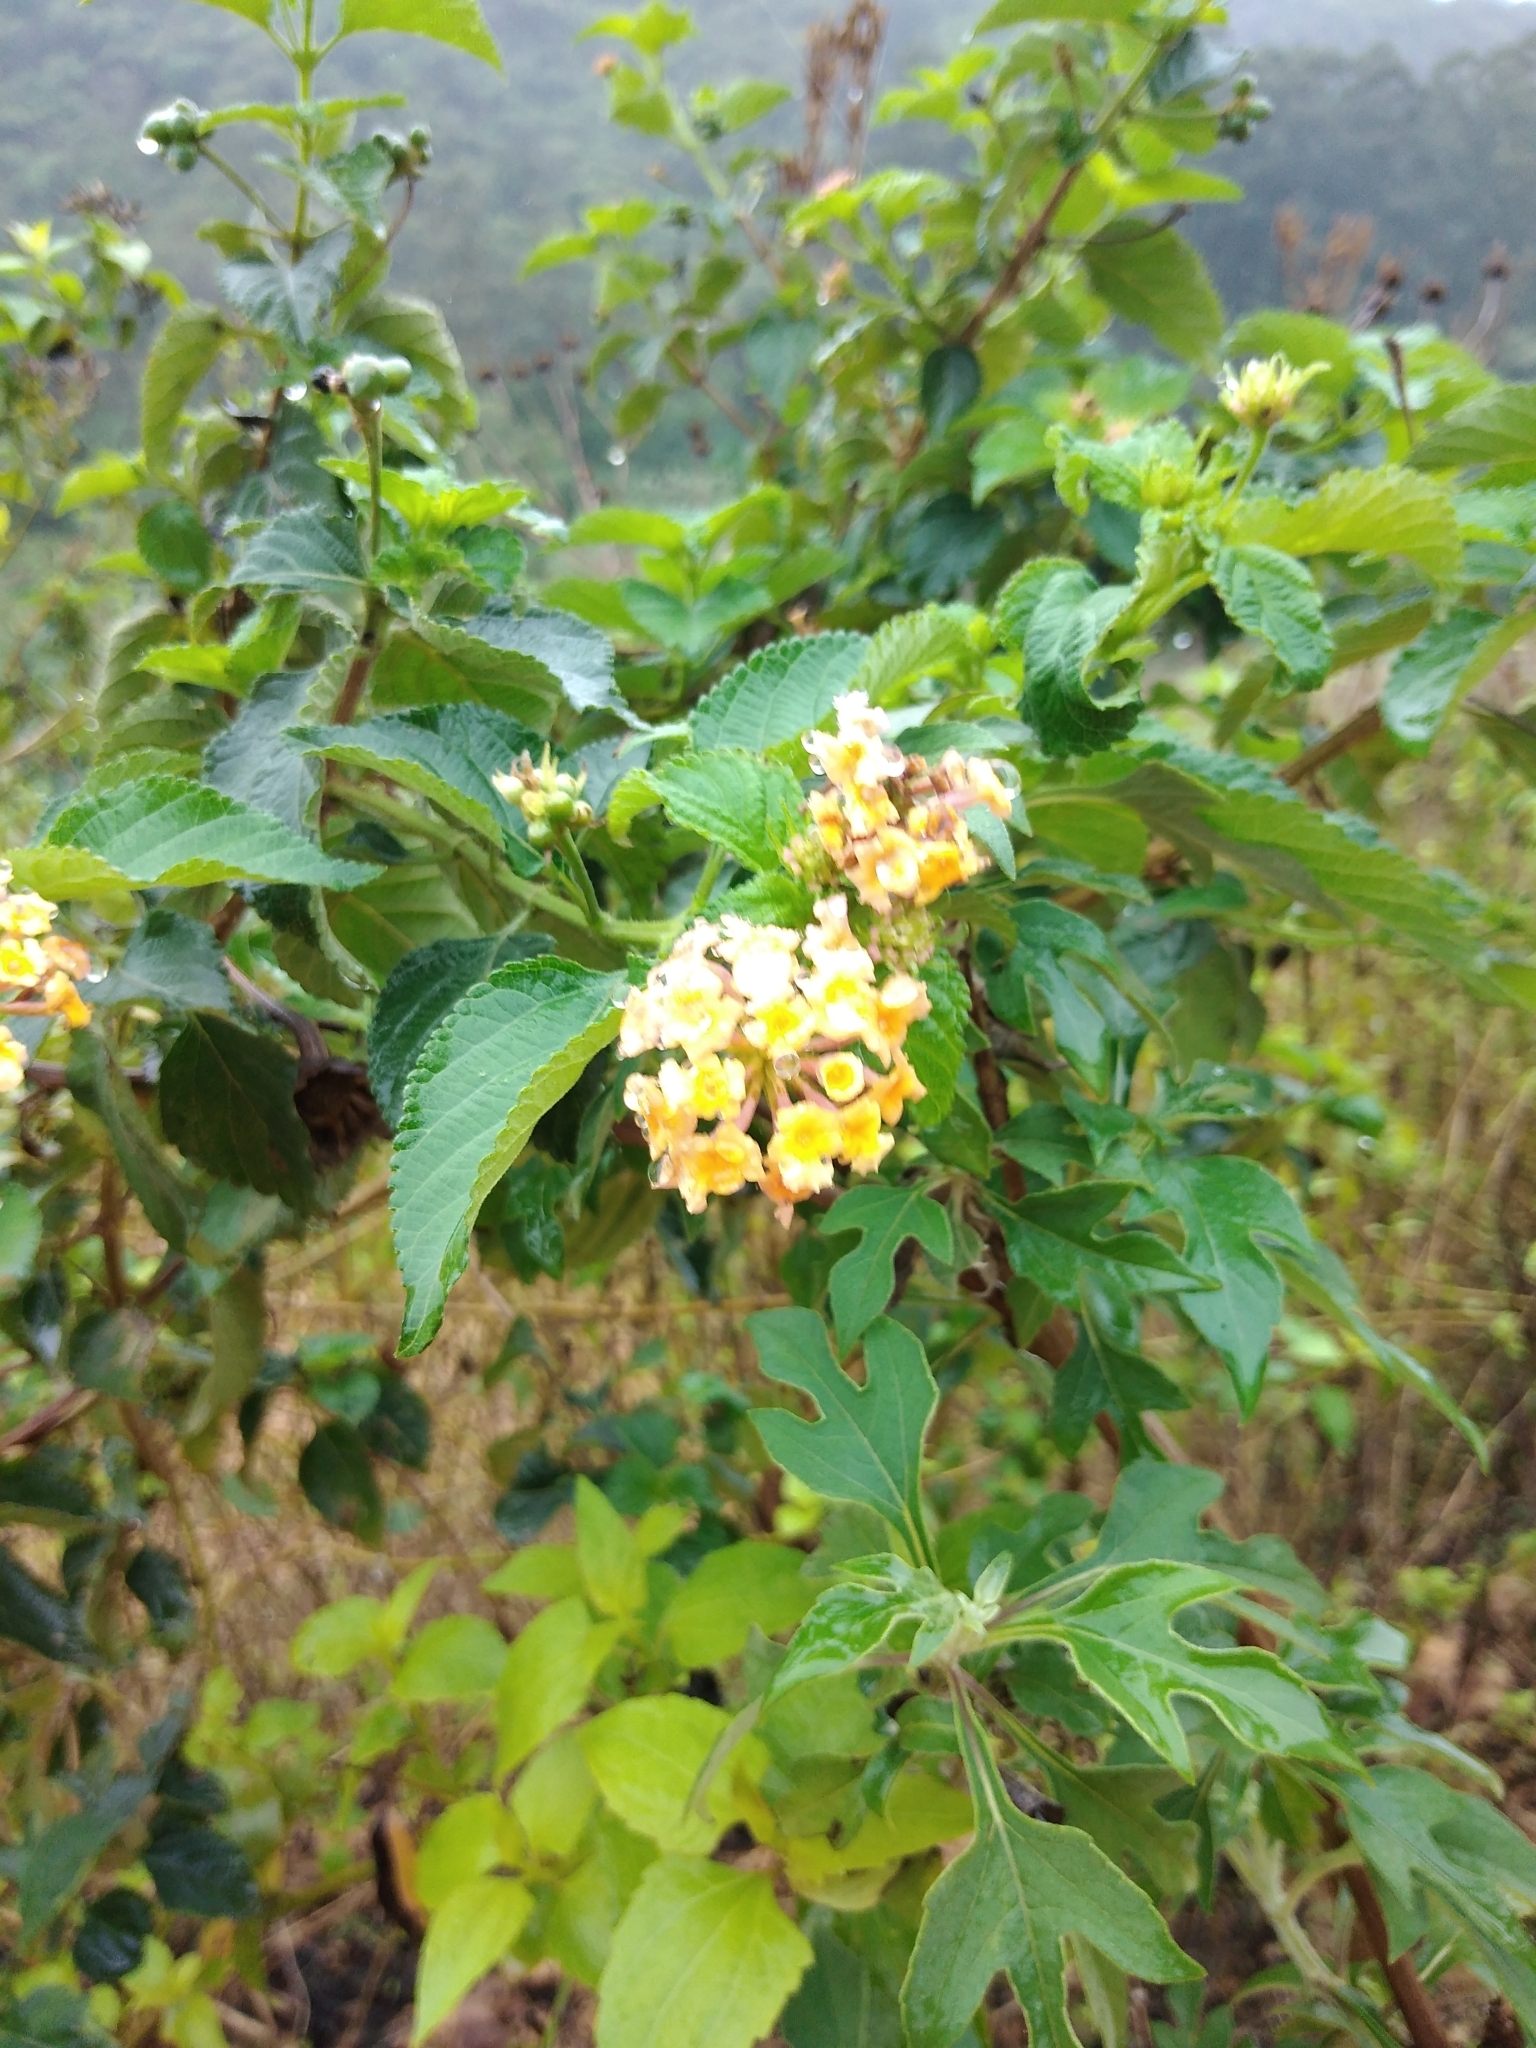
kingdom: Plantae
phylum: Tracheophyta
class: Magnoliopsida
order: Lamiales
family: Verbenaceae
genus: Lantana
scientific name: Lantana camara
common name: Lantana
